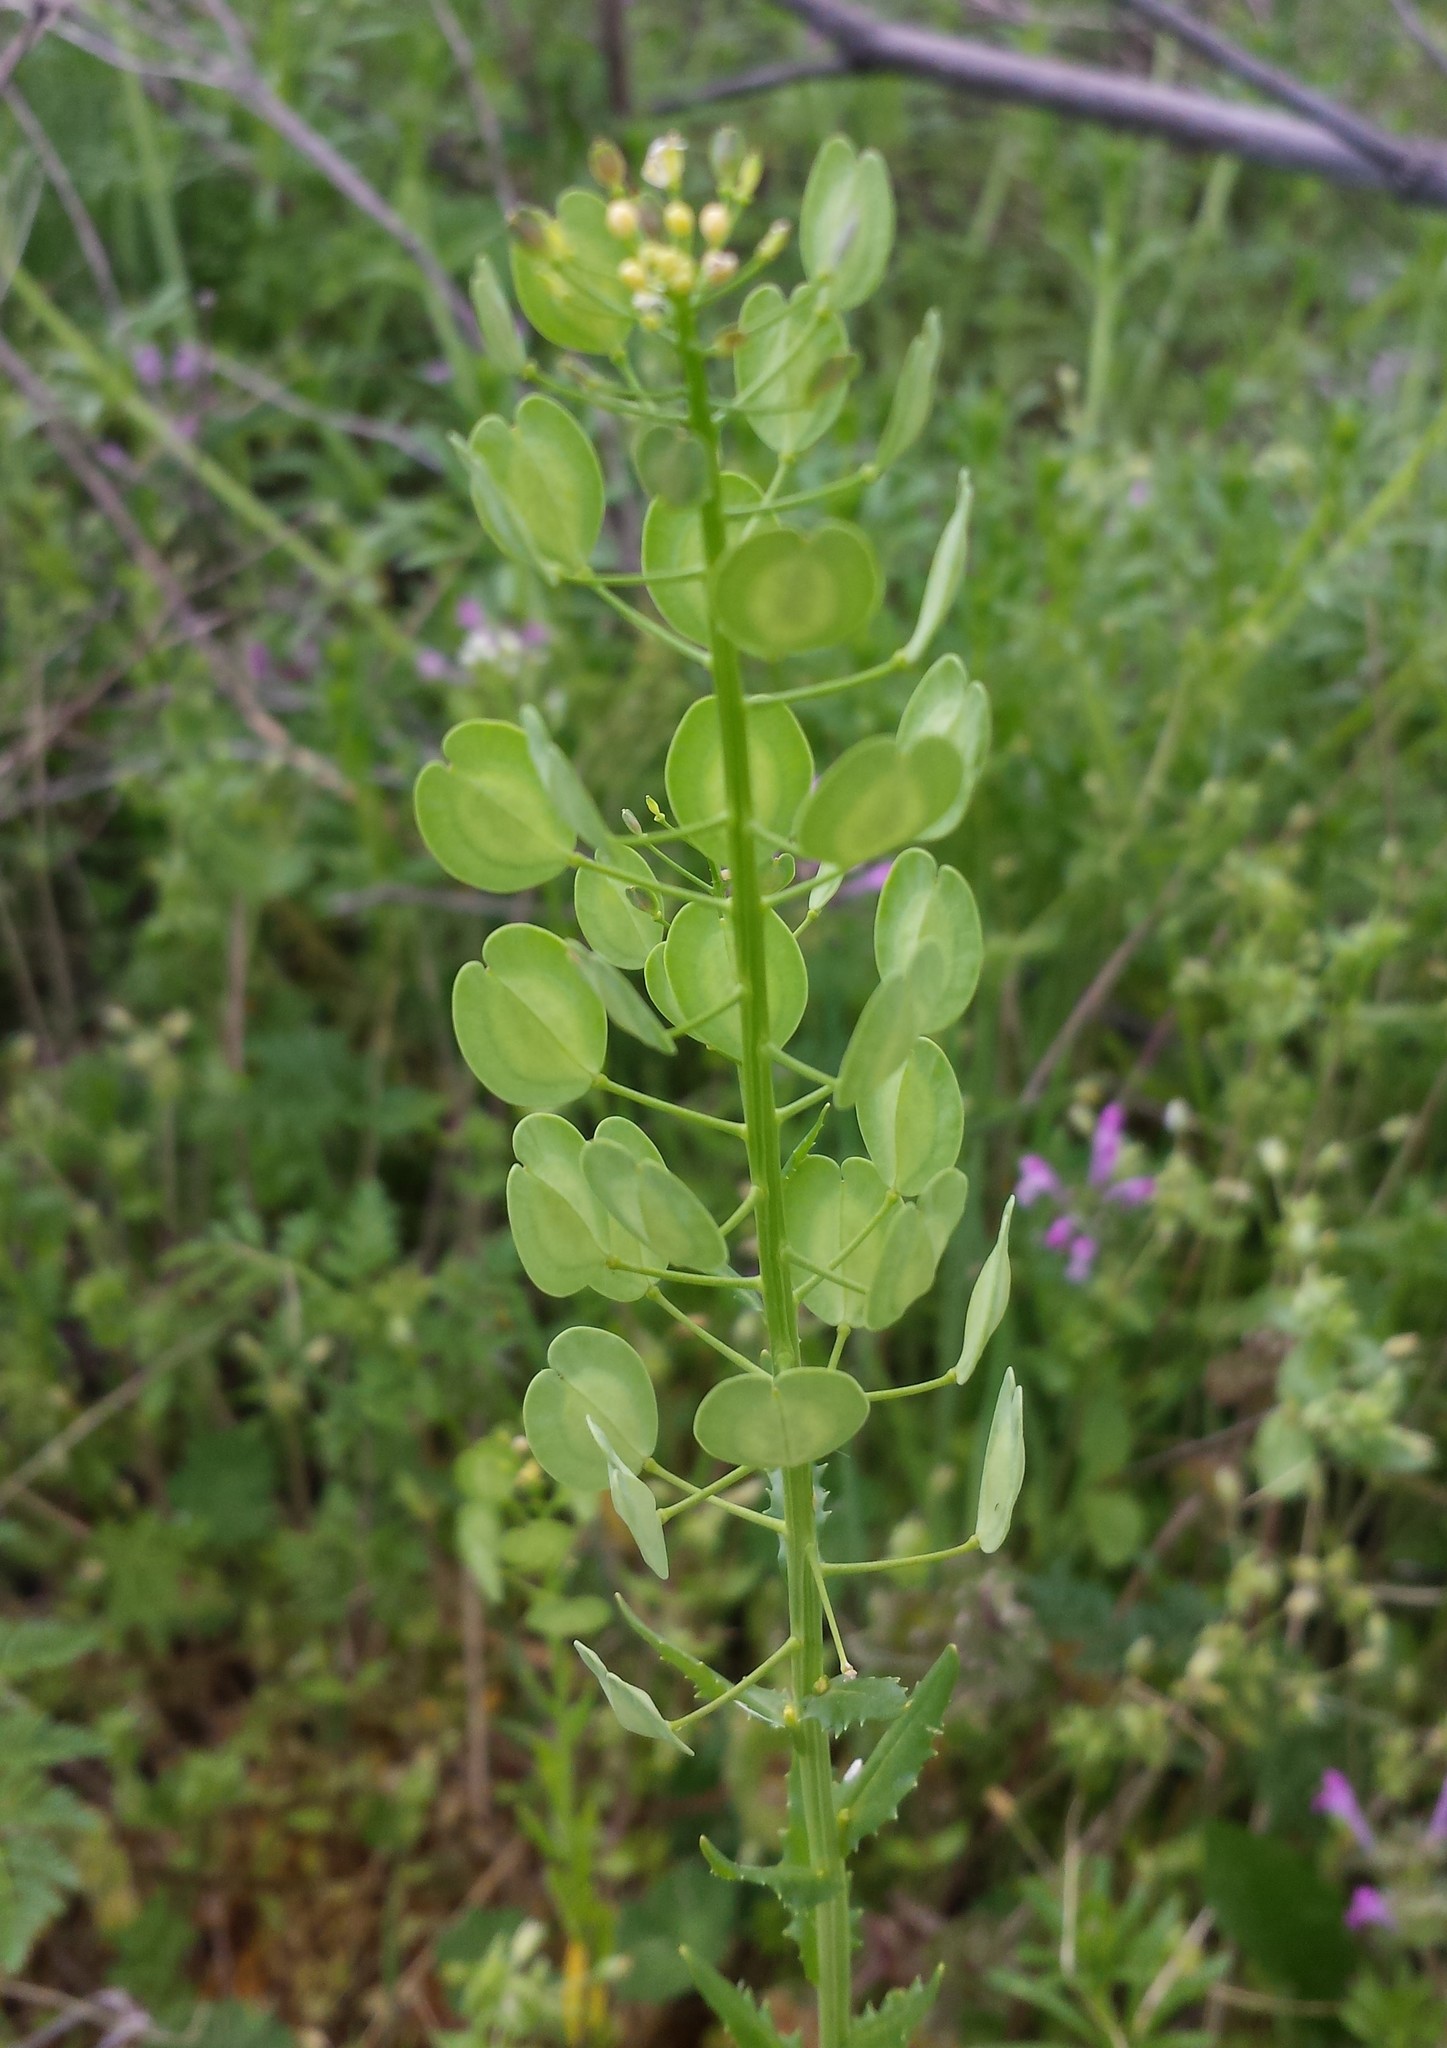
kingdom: Plantae
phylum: Tracheophyta
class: Magnoliopsida
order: Brassicales
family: Brassicaceae
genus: Thlaspi
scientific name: Thlaspi arvense
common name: Field pennycress
